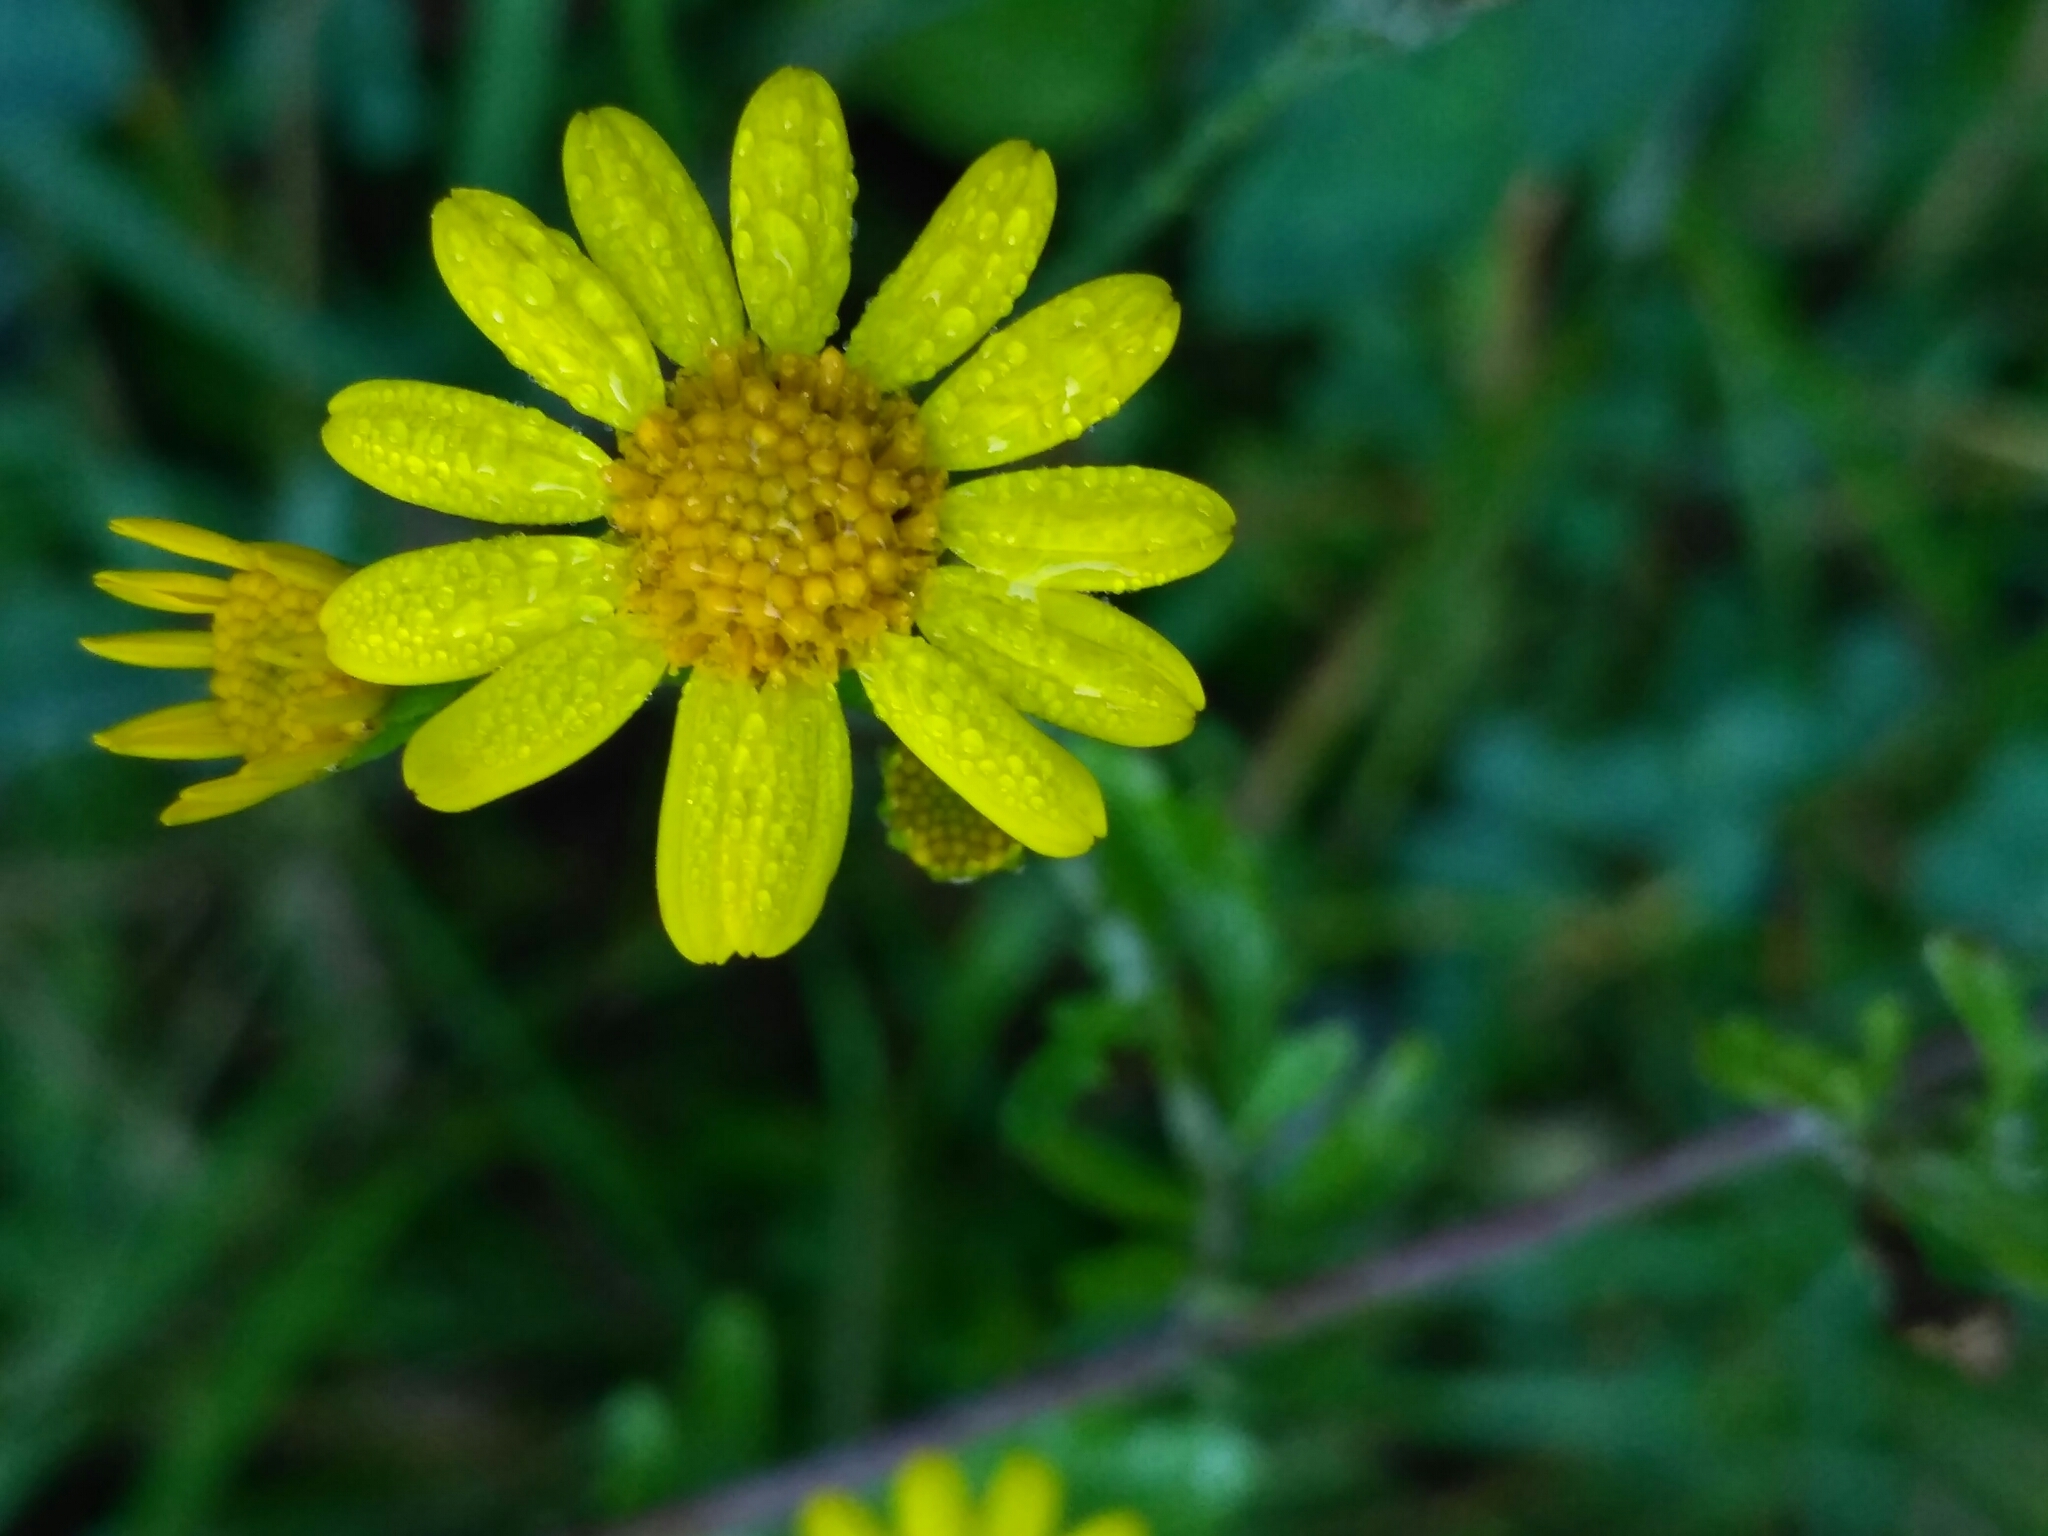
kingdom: Plantae
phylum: Tracheophyta
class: Magnoliopsida
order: Asterales
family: Asteraceae
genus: Jacobaea
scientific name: Jacobaea erratica
